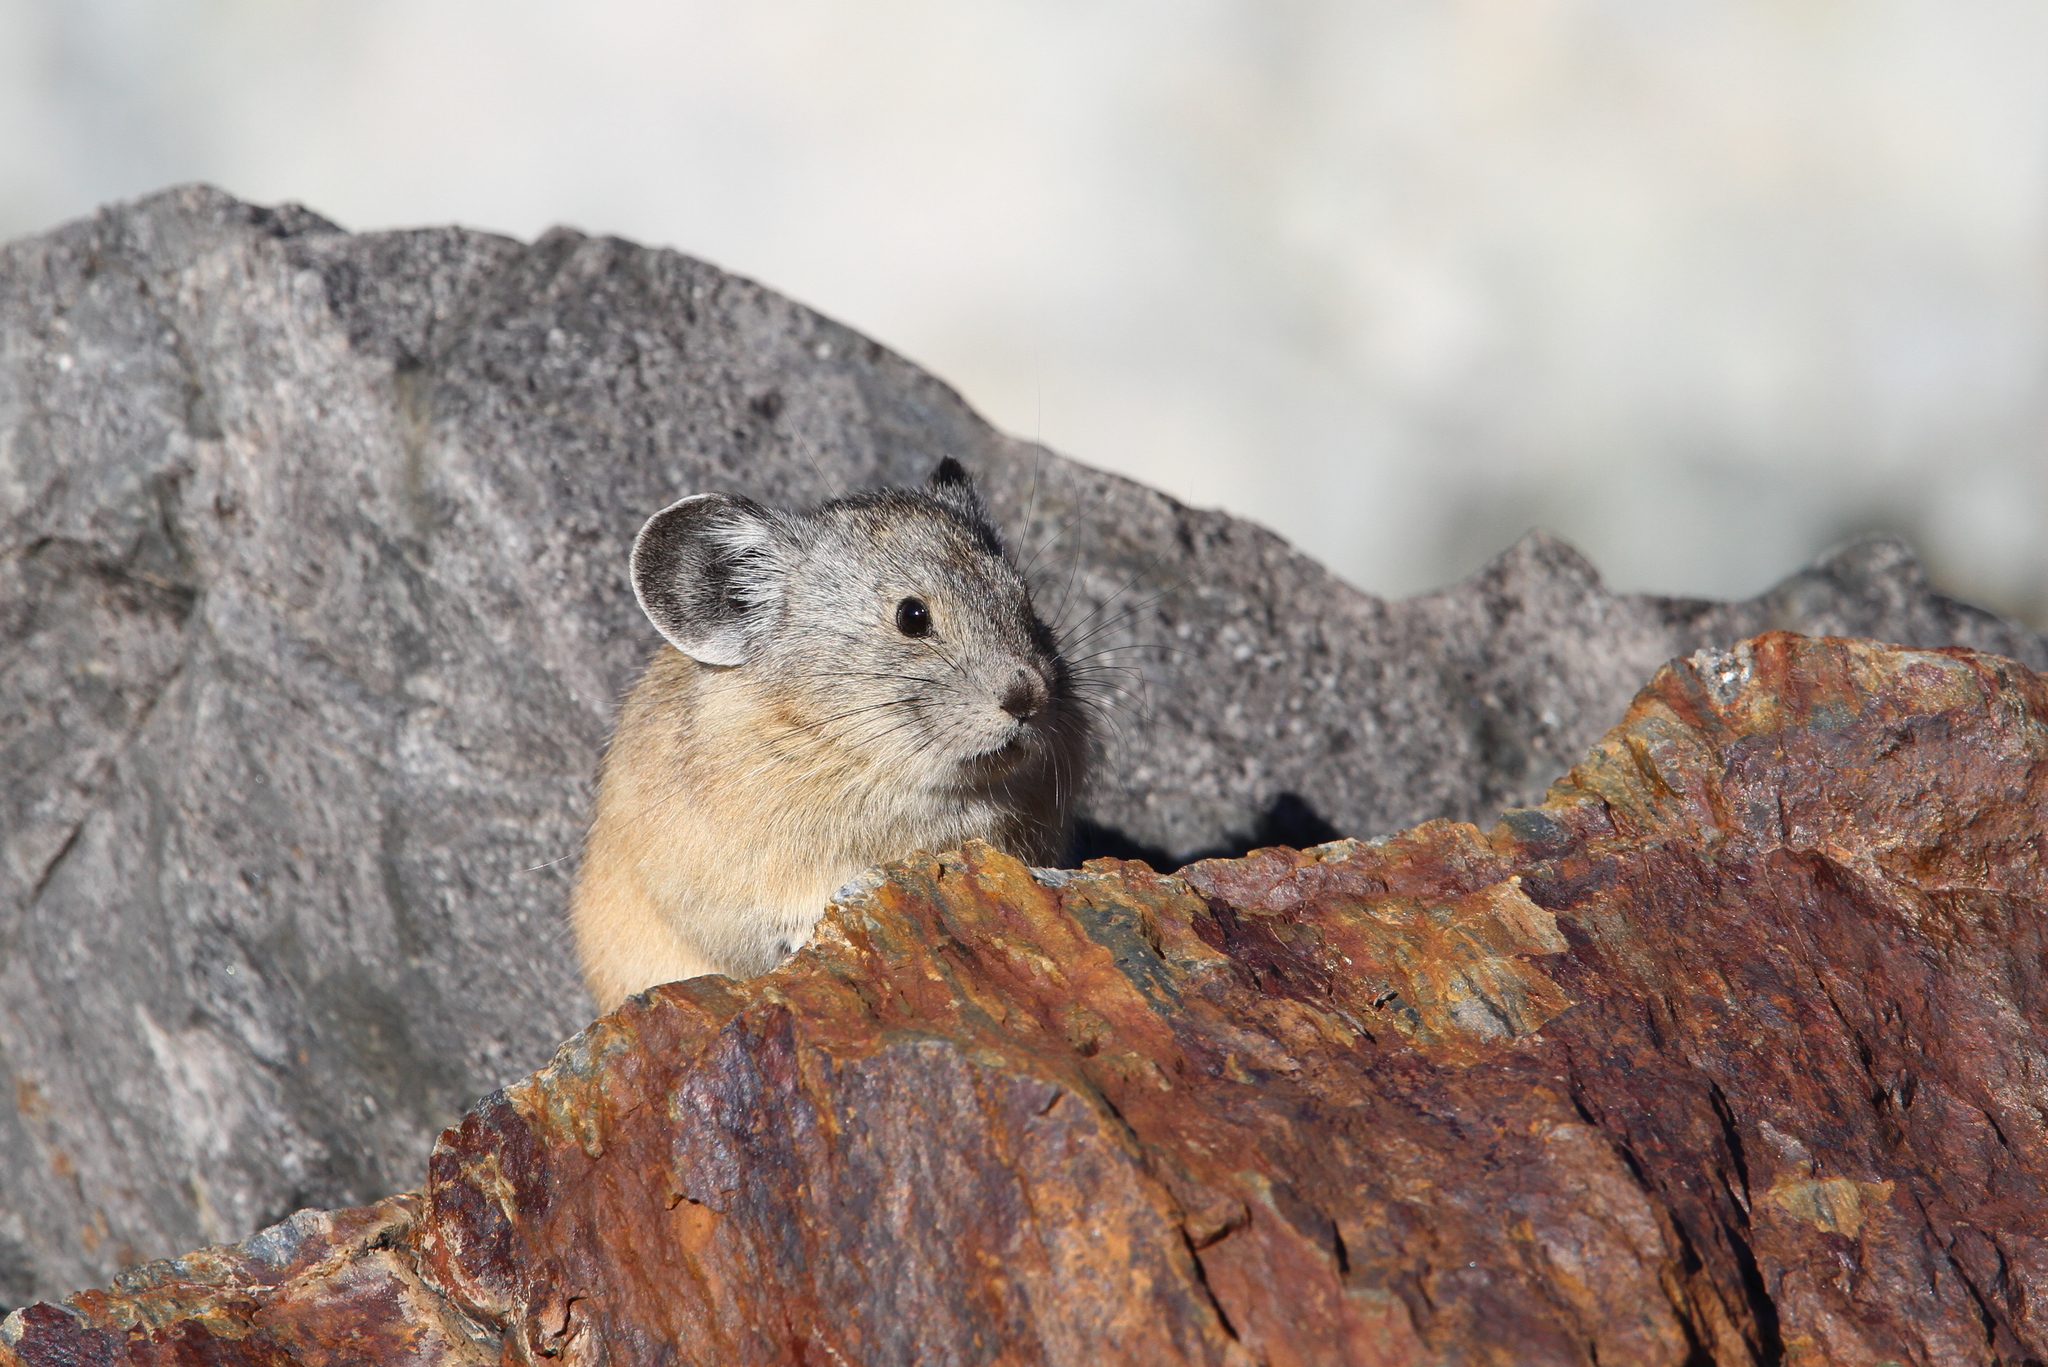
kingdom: Animalia
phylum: Chordata
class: Mammalia
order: Lagomorpha
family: Ochotonidae
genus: Ochotona
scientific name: Ochotona princeps
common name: American pika
